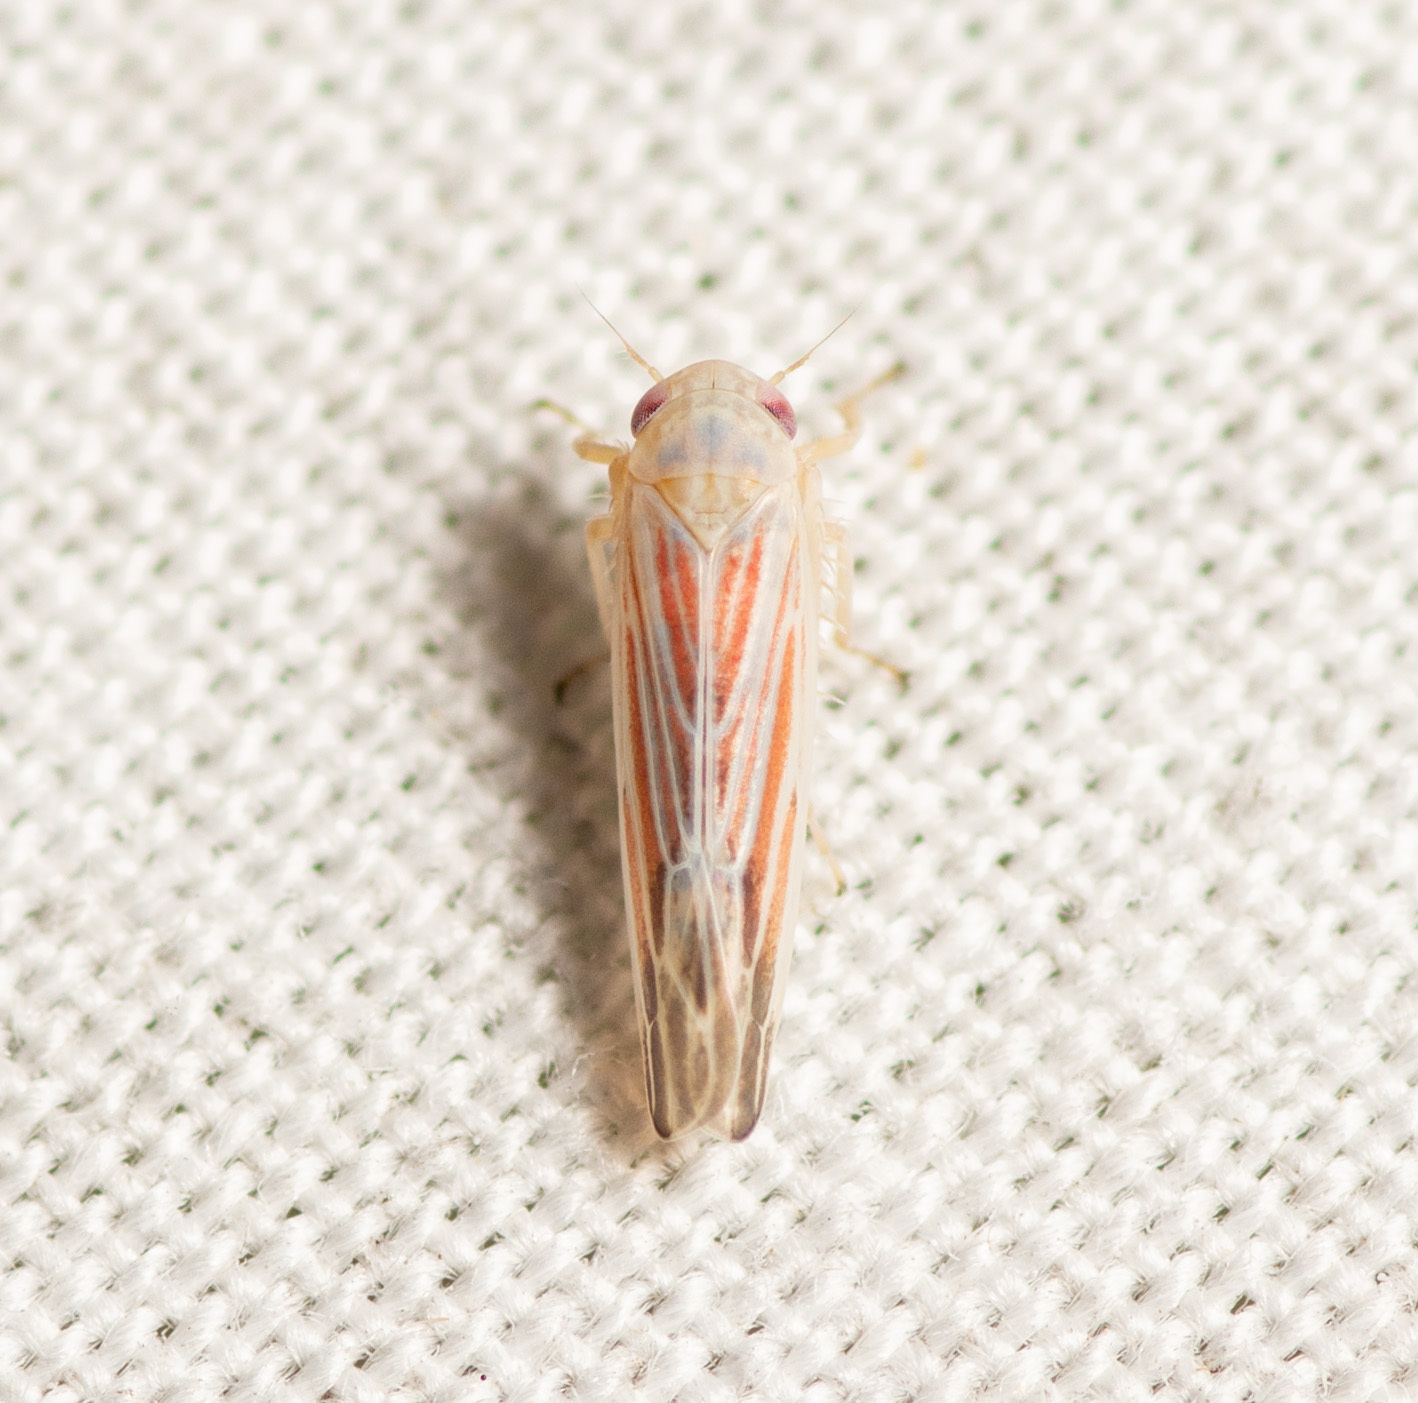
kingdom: Animalia
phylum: Arthropoda
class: Insecta
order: Hemiptera
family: Cicadellidae
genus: Balclutha
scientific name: Balclutha rubrostriata
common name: Red-streaked leafhopper
